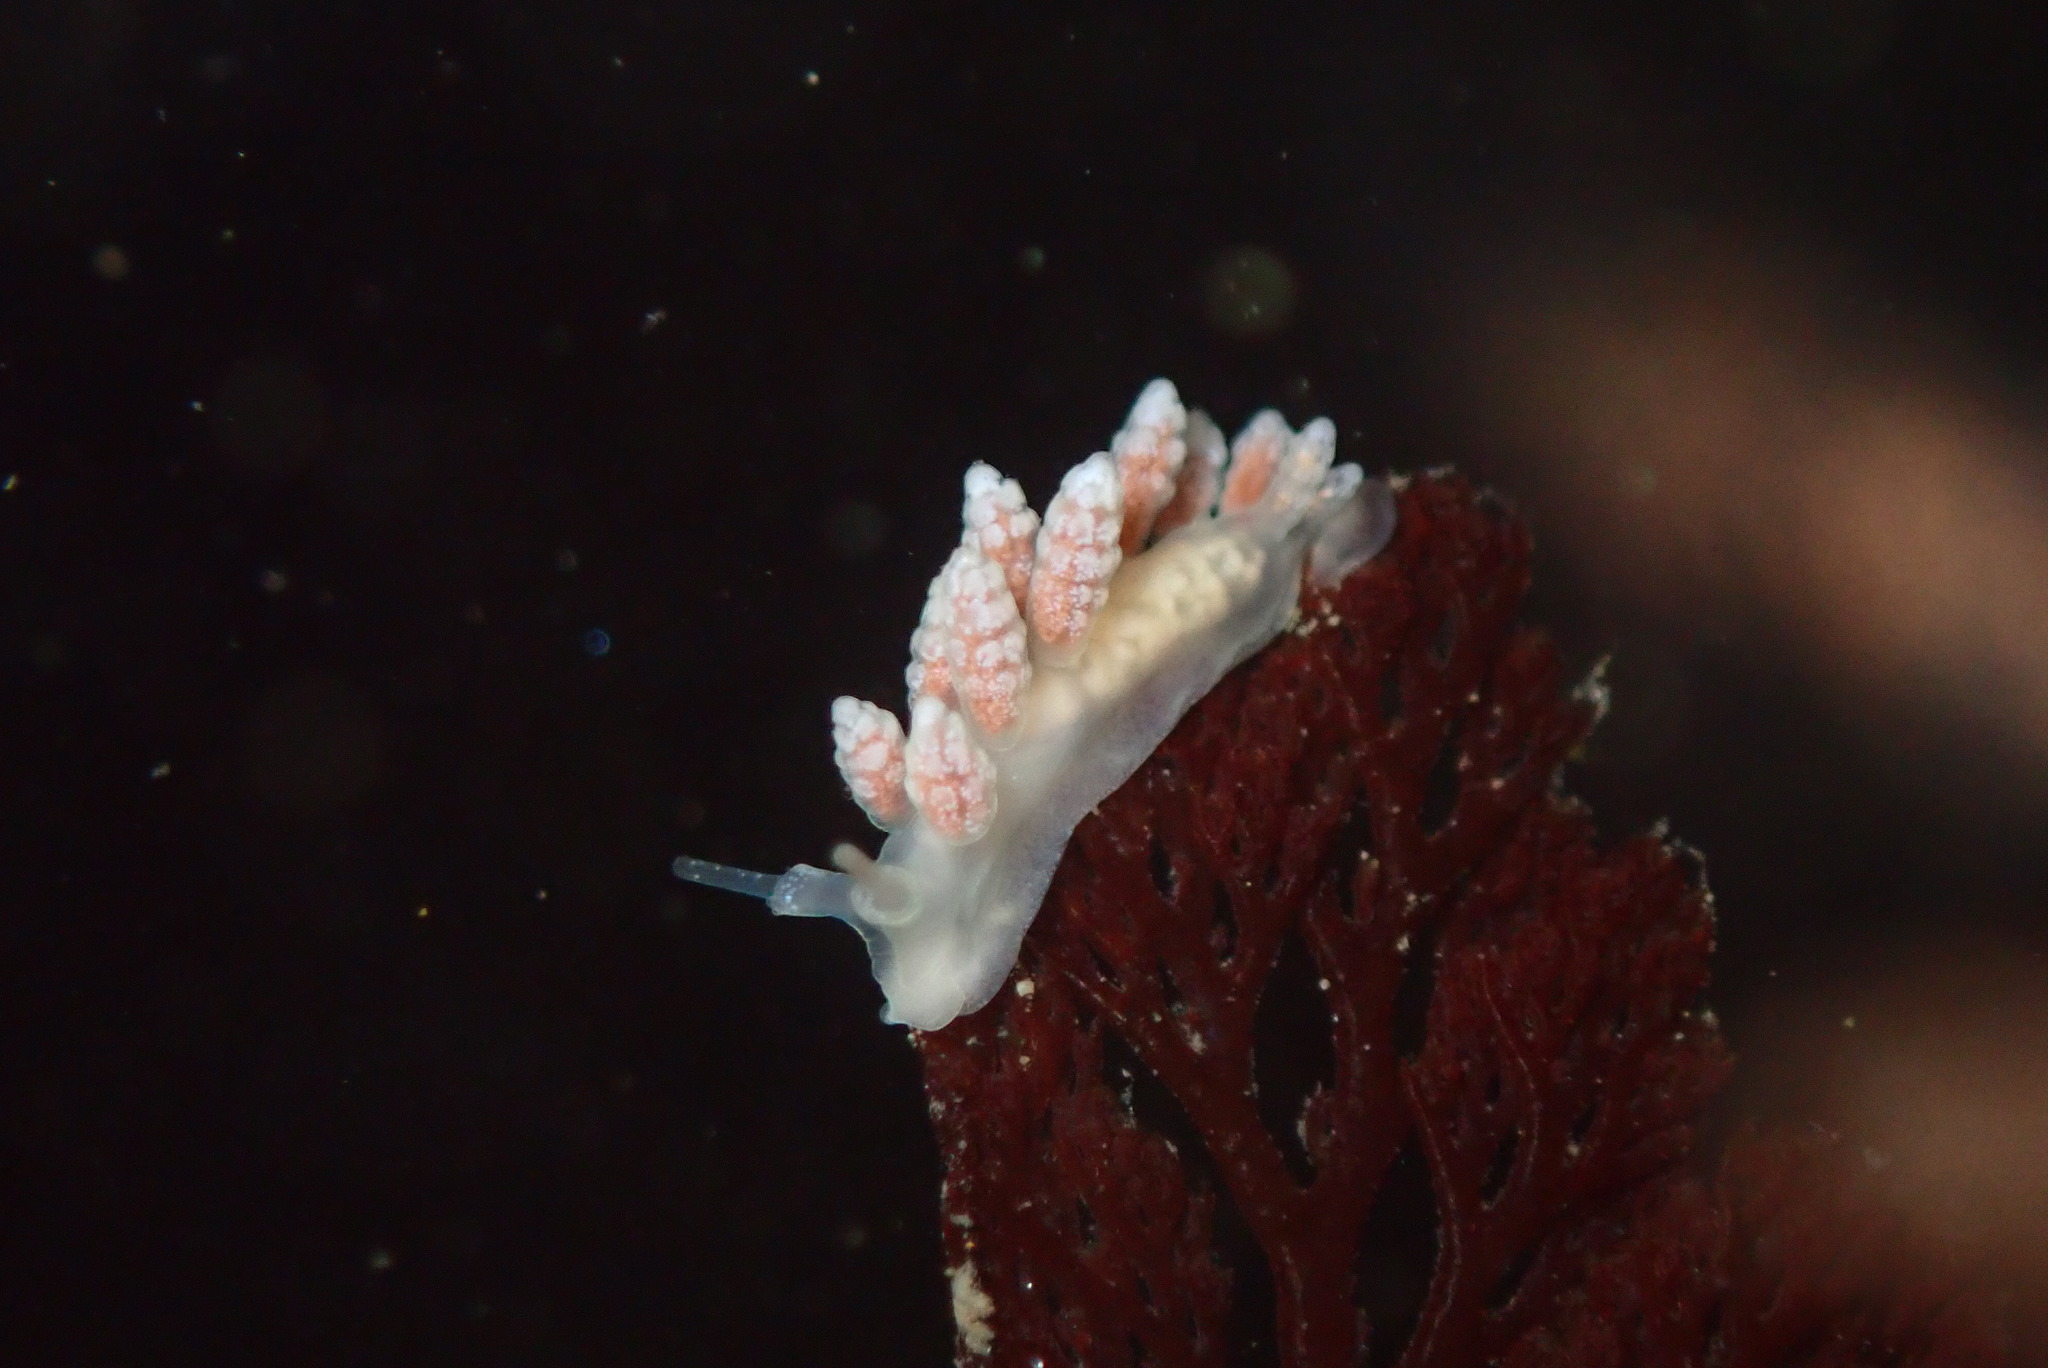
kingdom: Animalia
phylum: Mollusca
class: Gastropoda
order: Nudibranchia
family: Dotidae
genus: Doto
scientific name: Doto amyra
